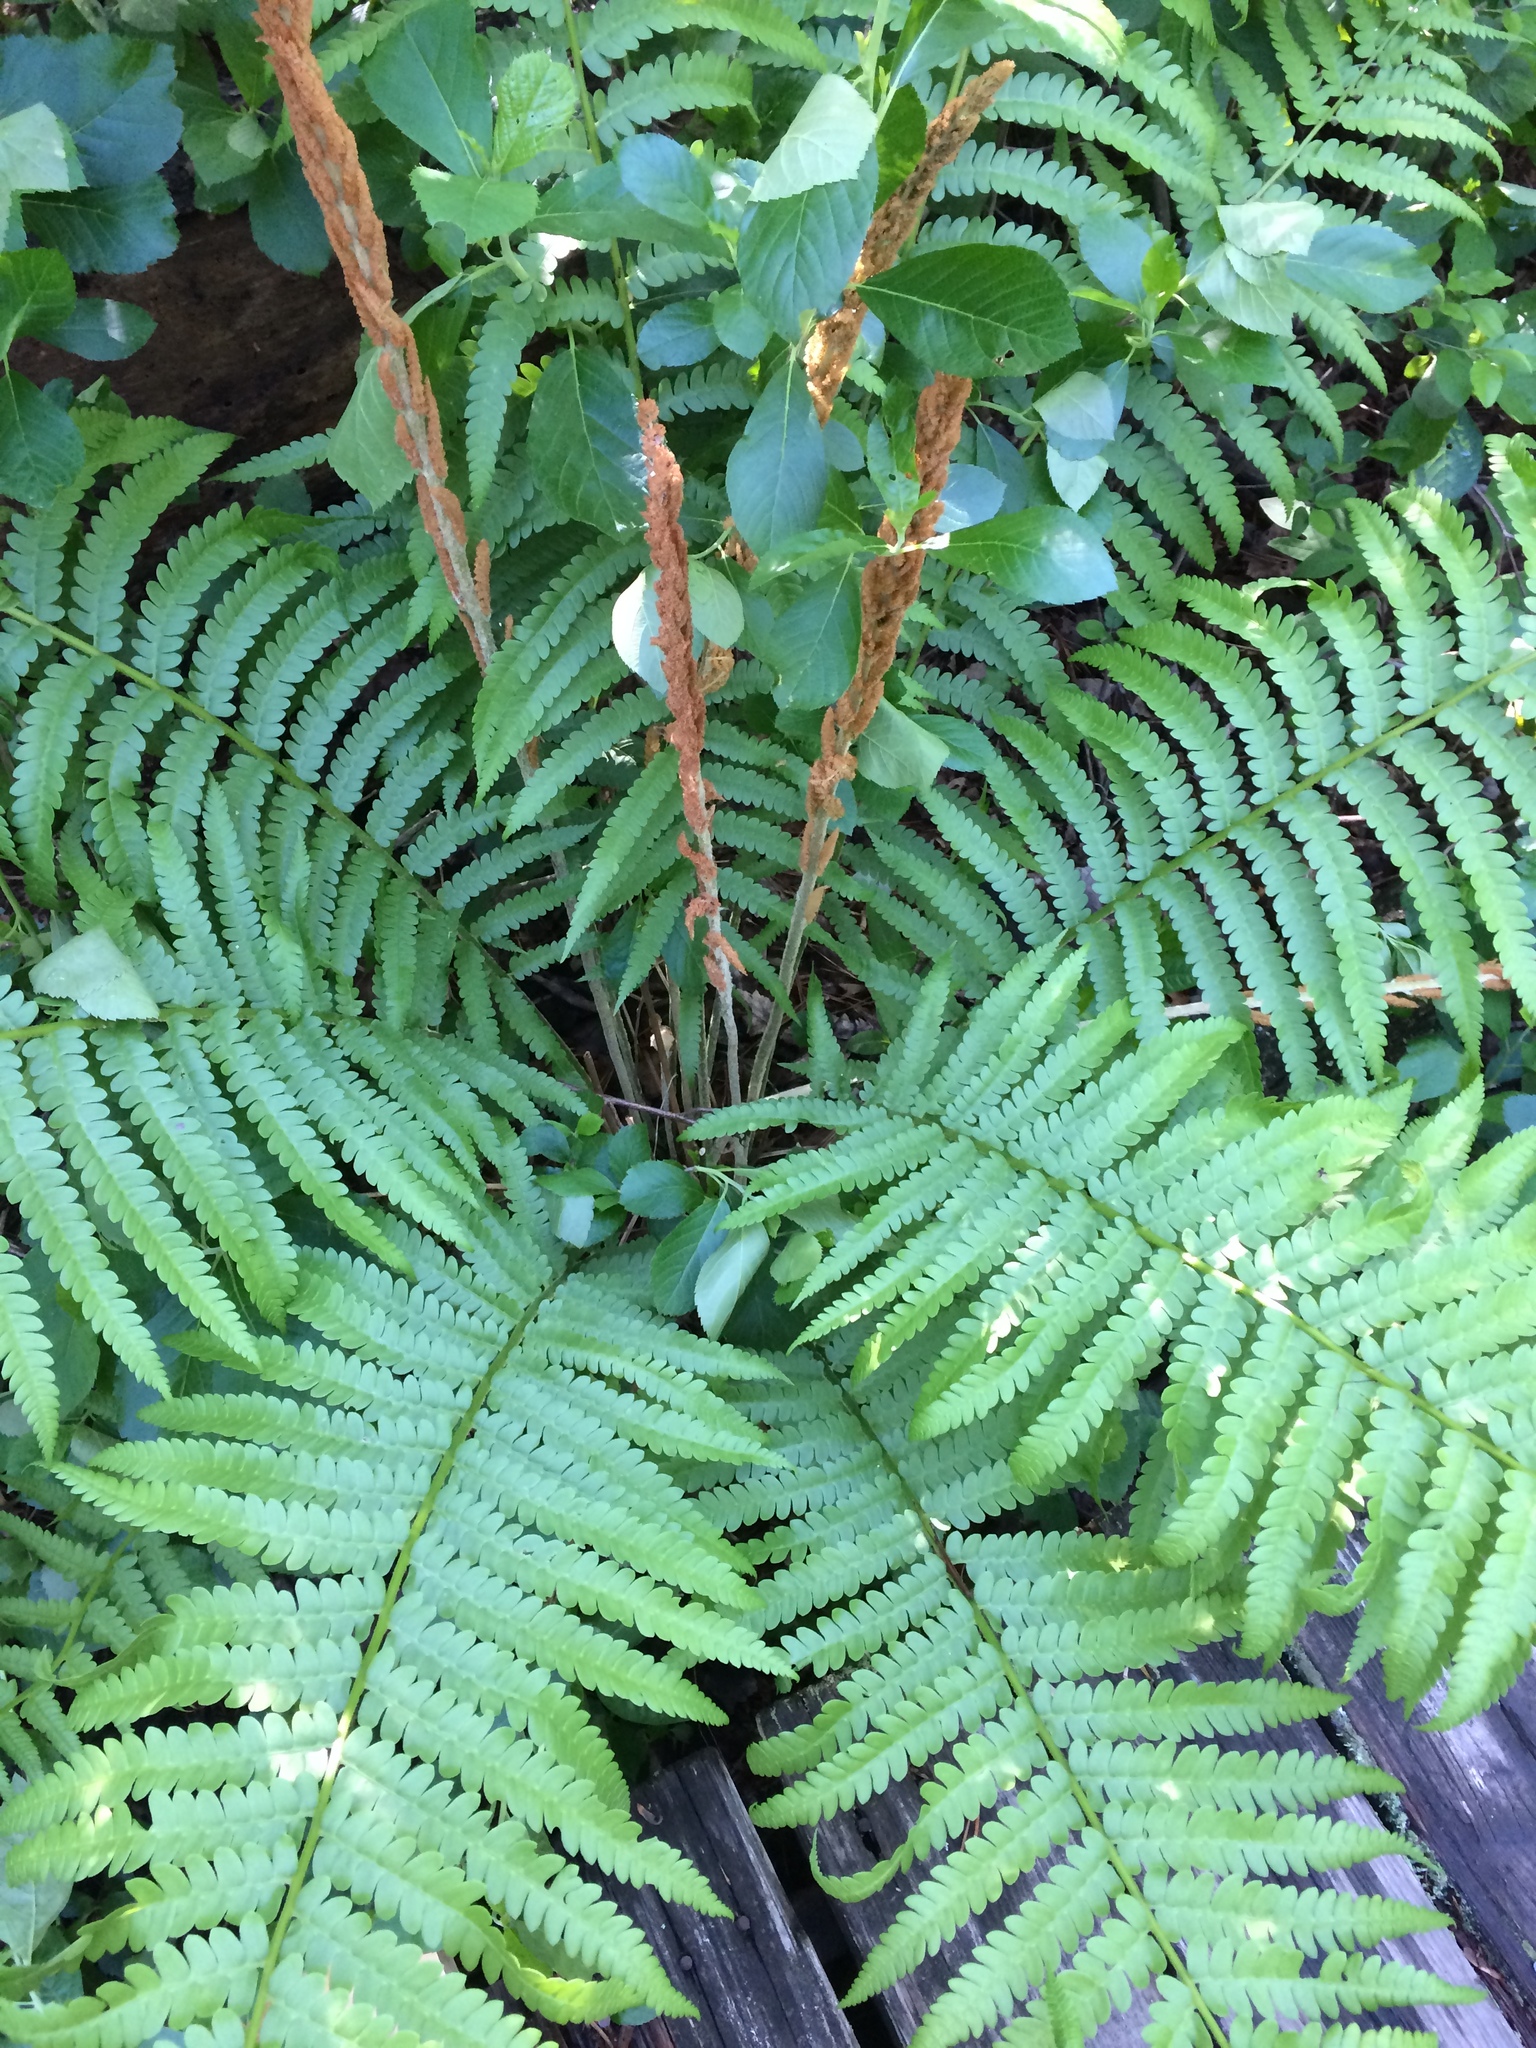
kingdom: Plantae
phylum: Tracheophyta
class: Polypodiopsida
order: Osmundales
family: Osmundaceae
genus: Osmundastrum
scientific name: Osmundastrum cinnamomeum
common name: Cinnamon fern
